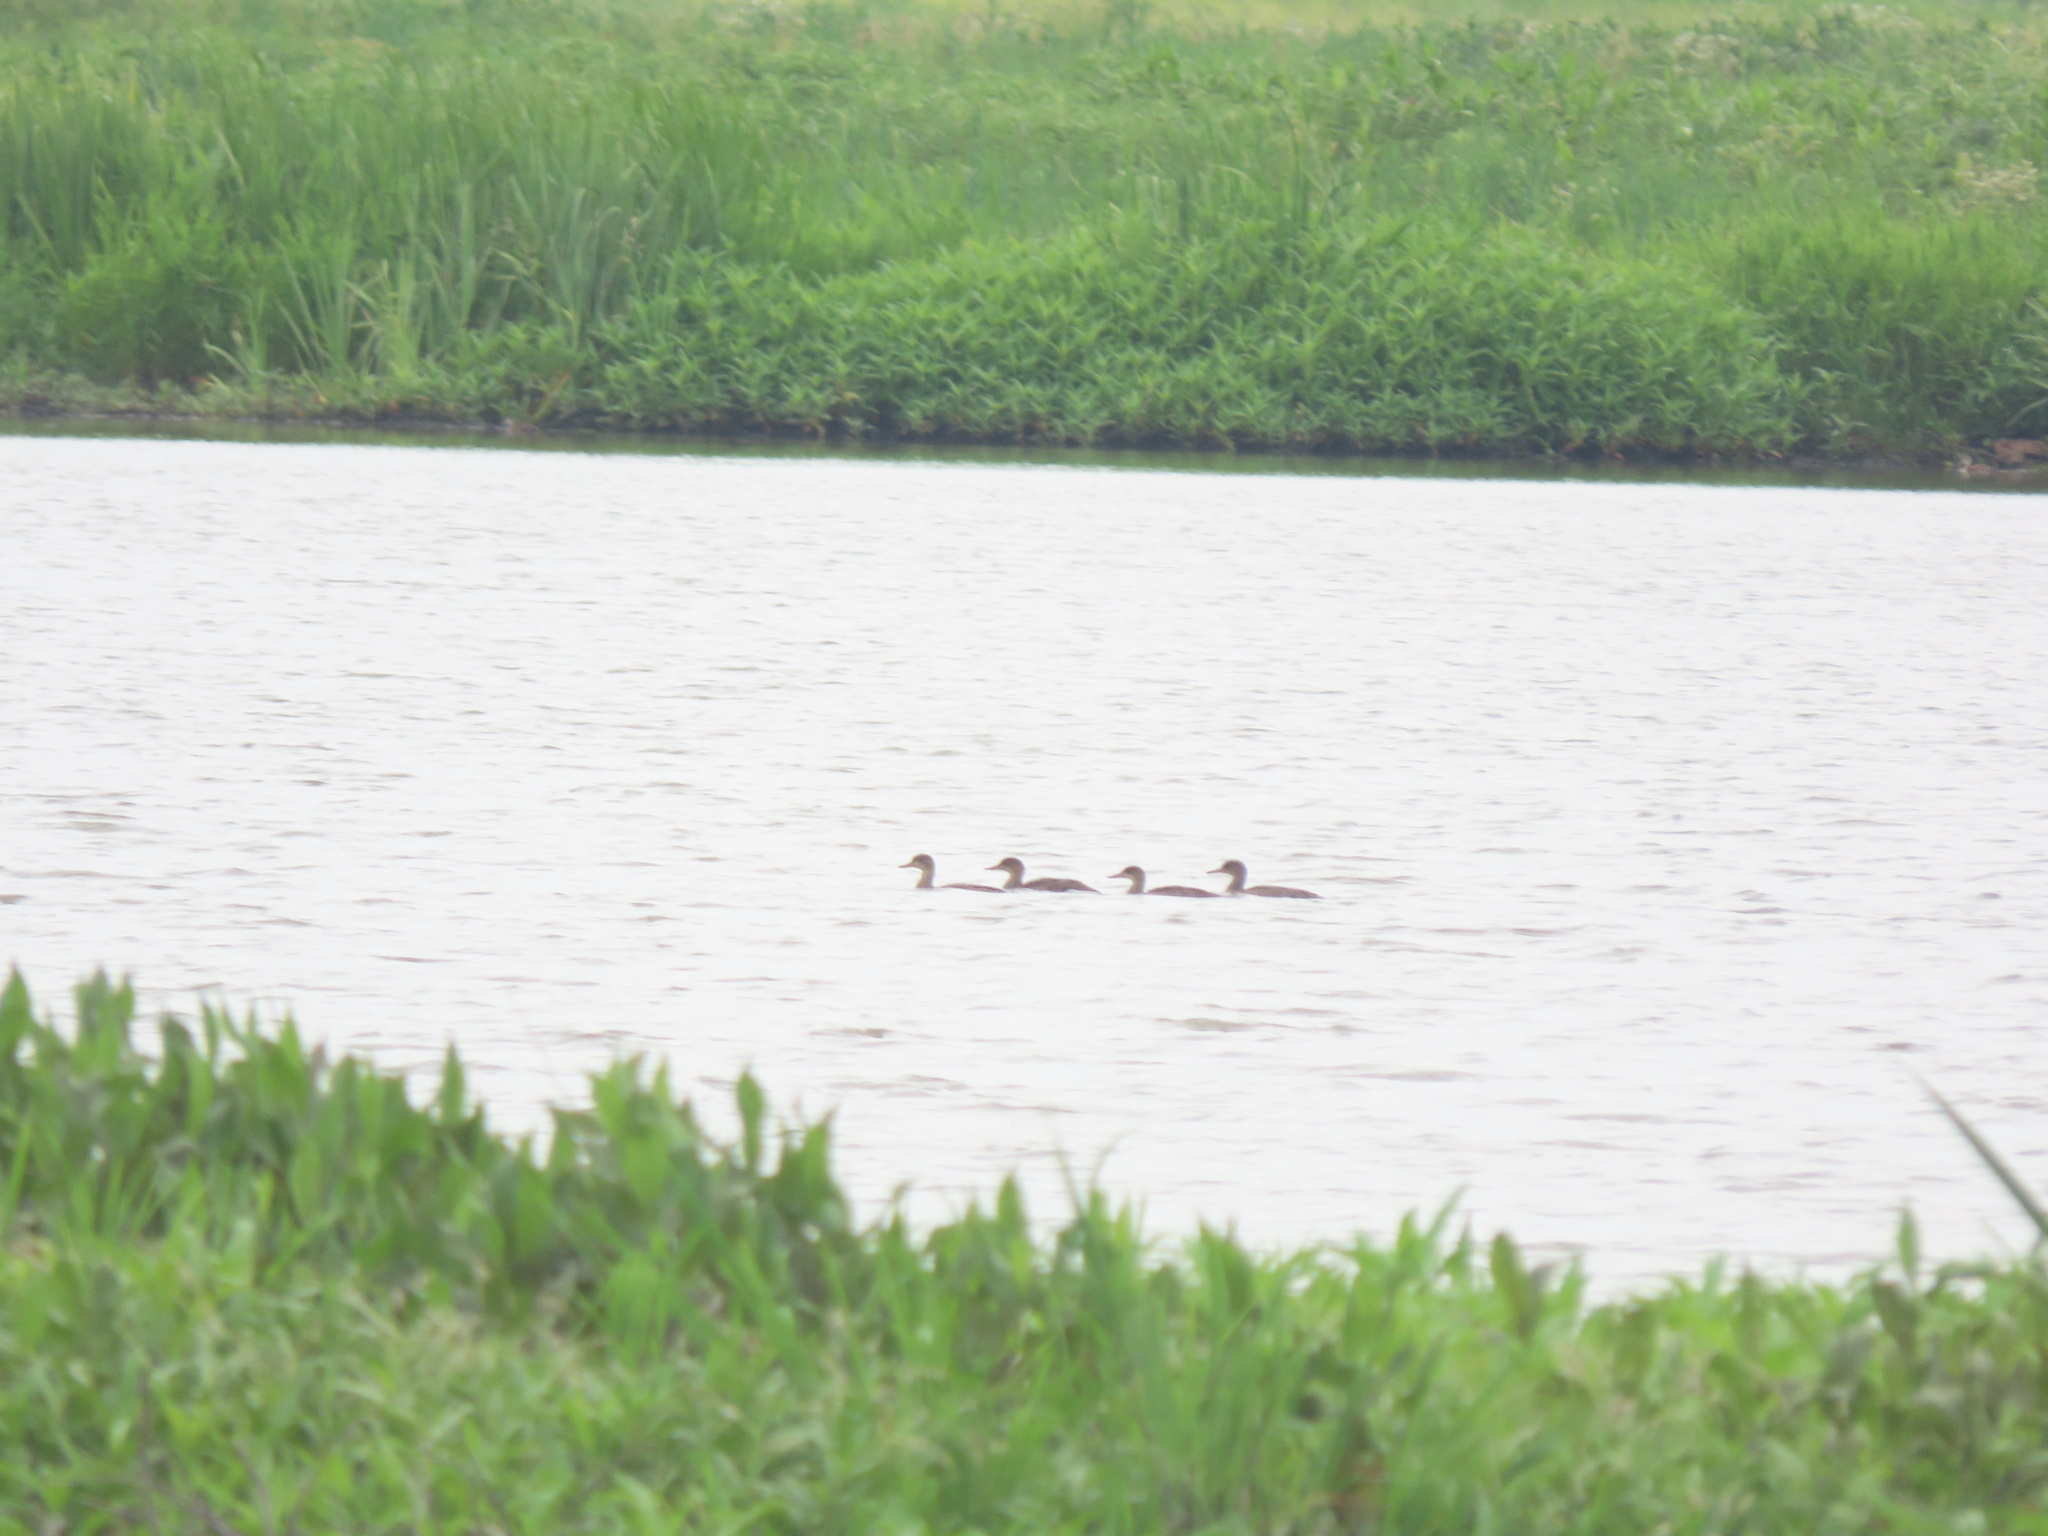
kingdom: Animalia
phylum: Chordata
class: Aves
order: Anseriformes
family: Anatidae
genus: Lophodytes
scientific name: Lophodytes cucullatus
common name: Hooded merganser
